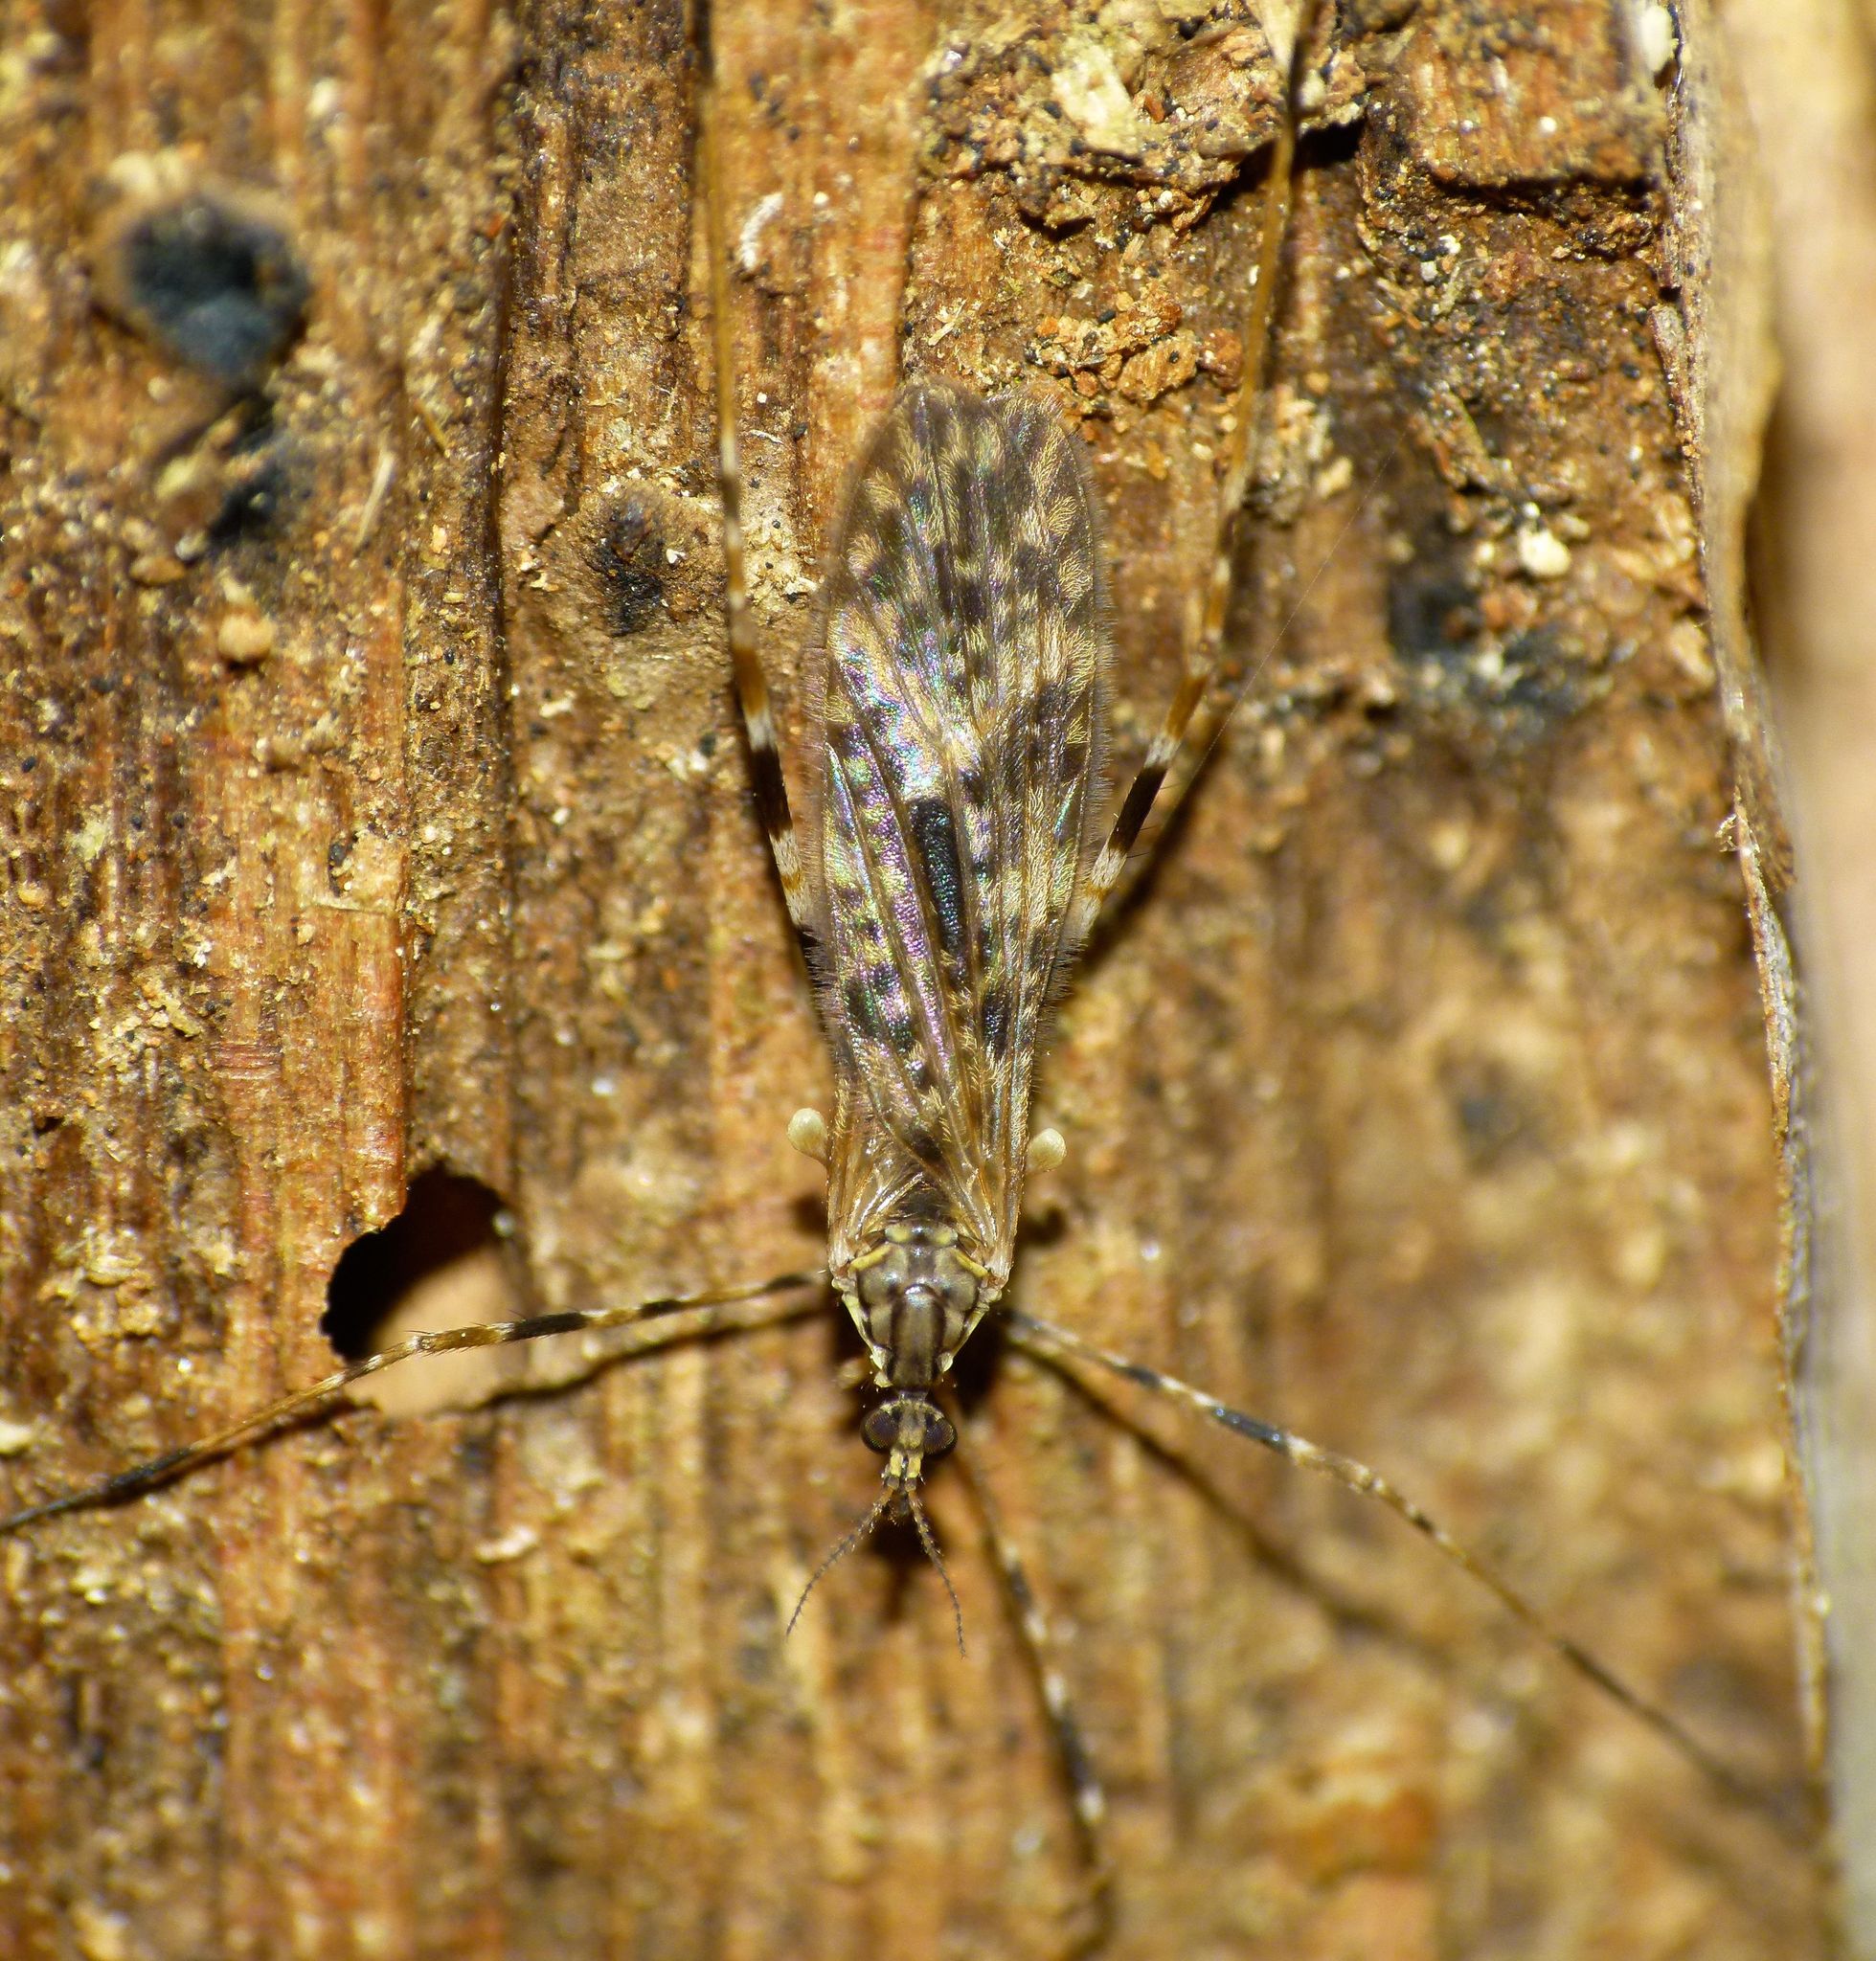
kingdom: Animalia
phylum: Arthropoda
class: Insecta
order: Diptera
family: Limoniidae
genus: Amphineurus
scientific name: Amphineurus hudsoni
